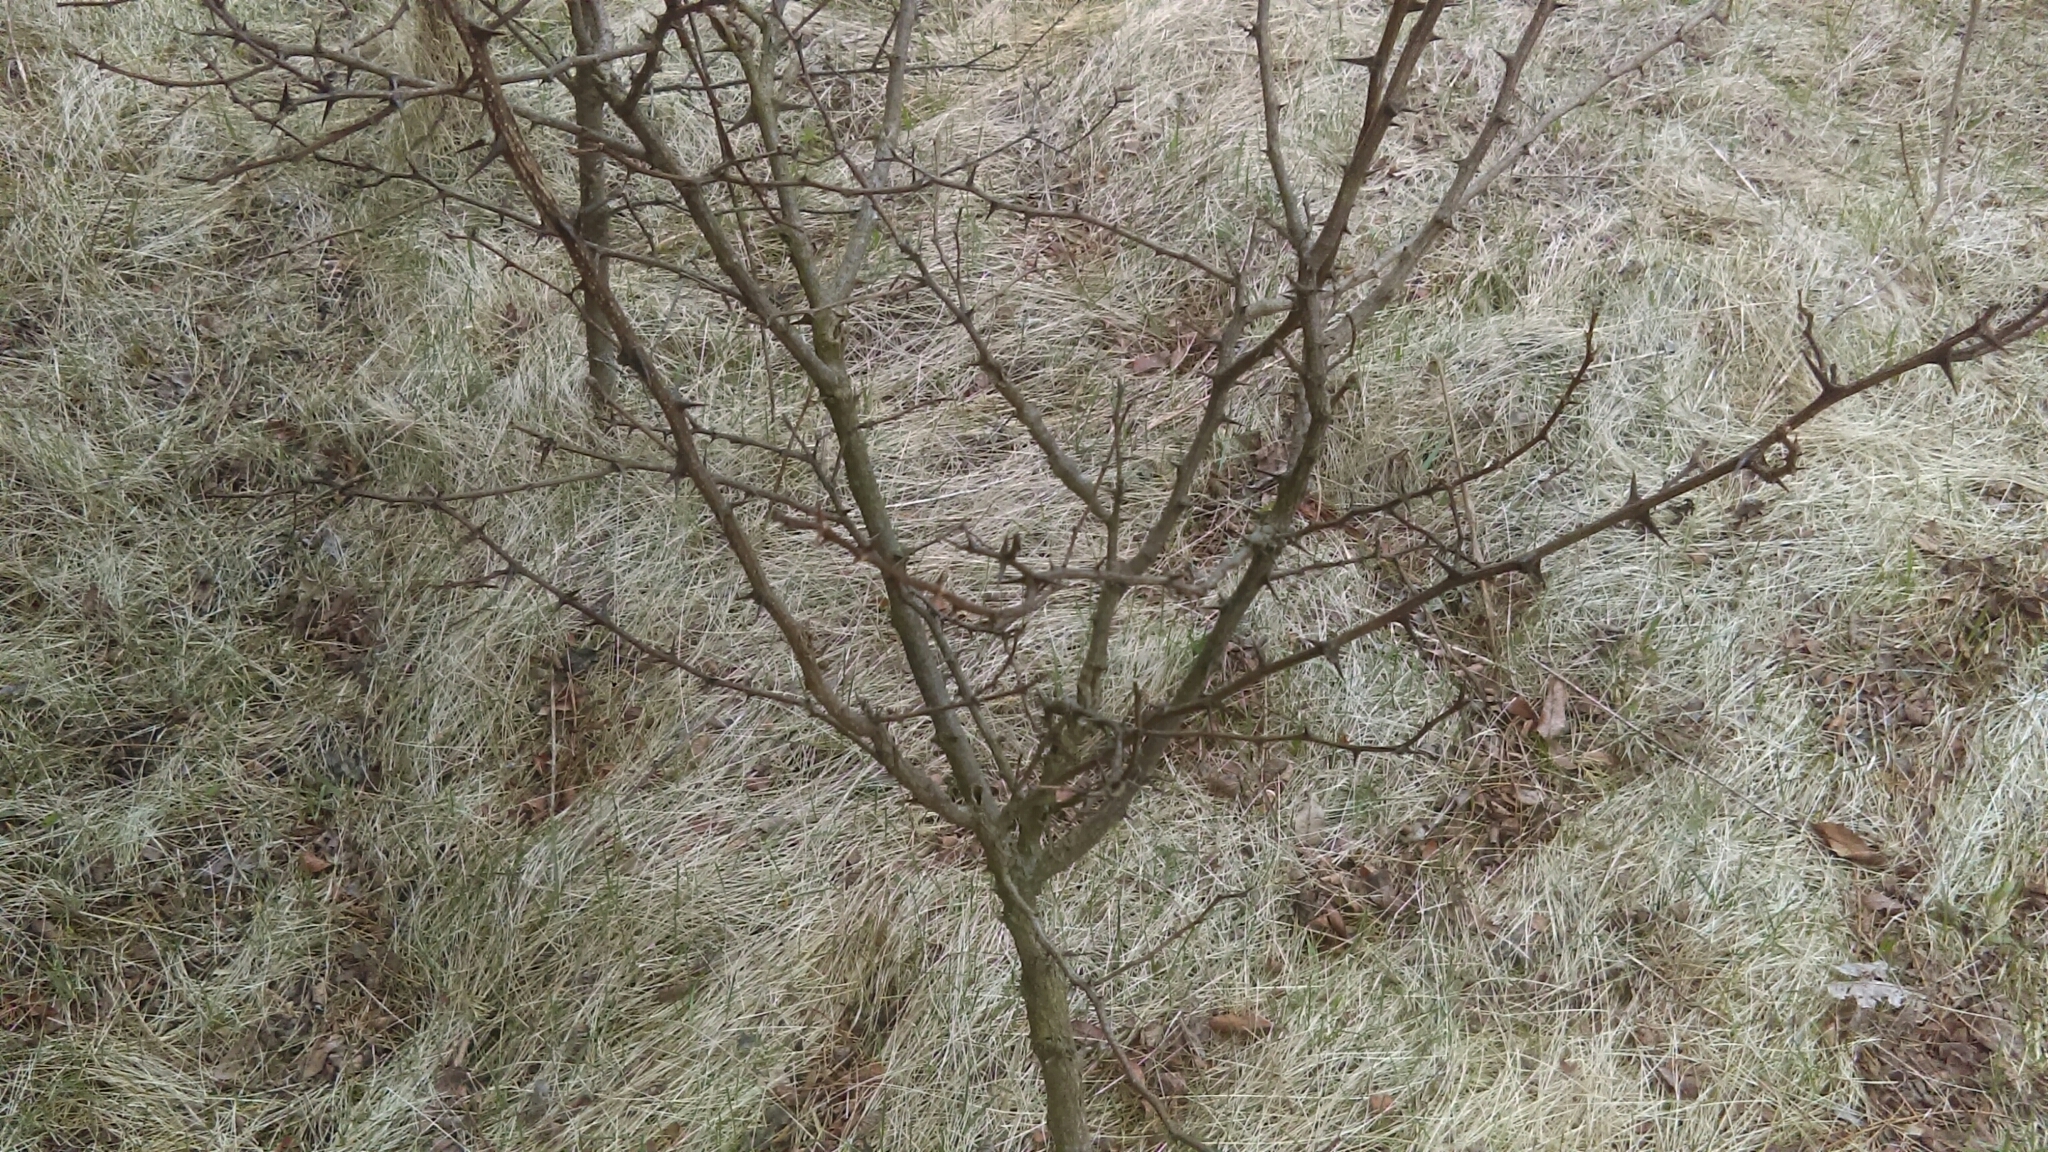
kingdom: Plantae
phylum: Tracheophyta
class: Magnoliopsida
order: Fabales
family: Fabaceae
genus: Robinia
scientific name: Robinia pseudoacacia
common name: Black locust
